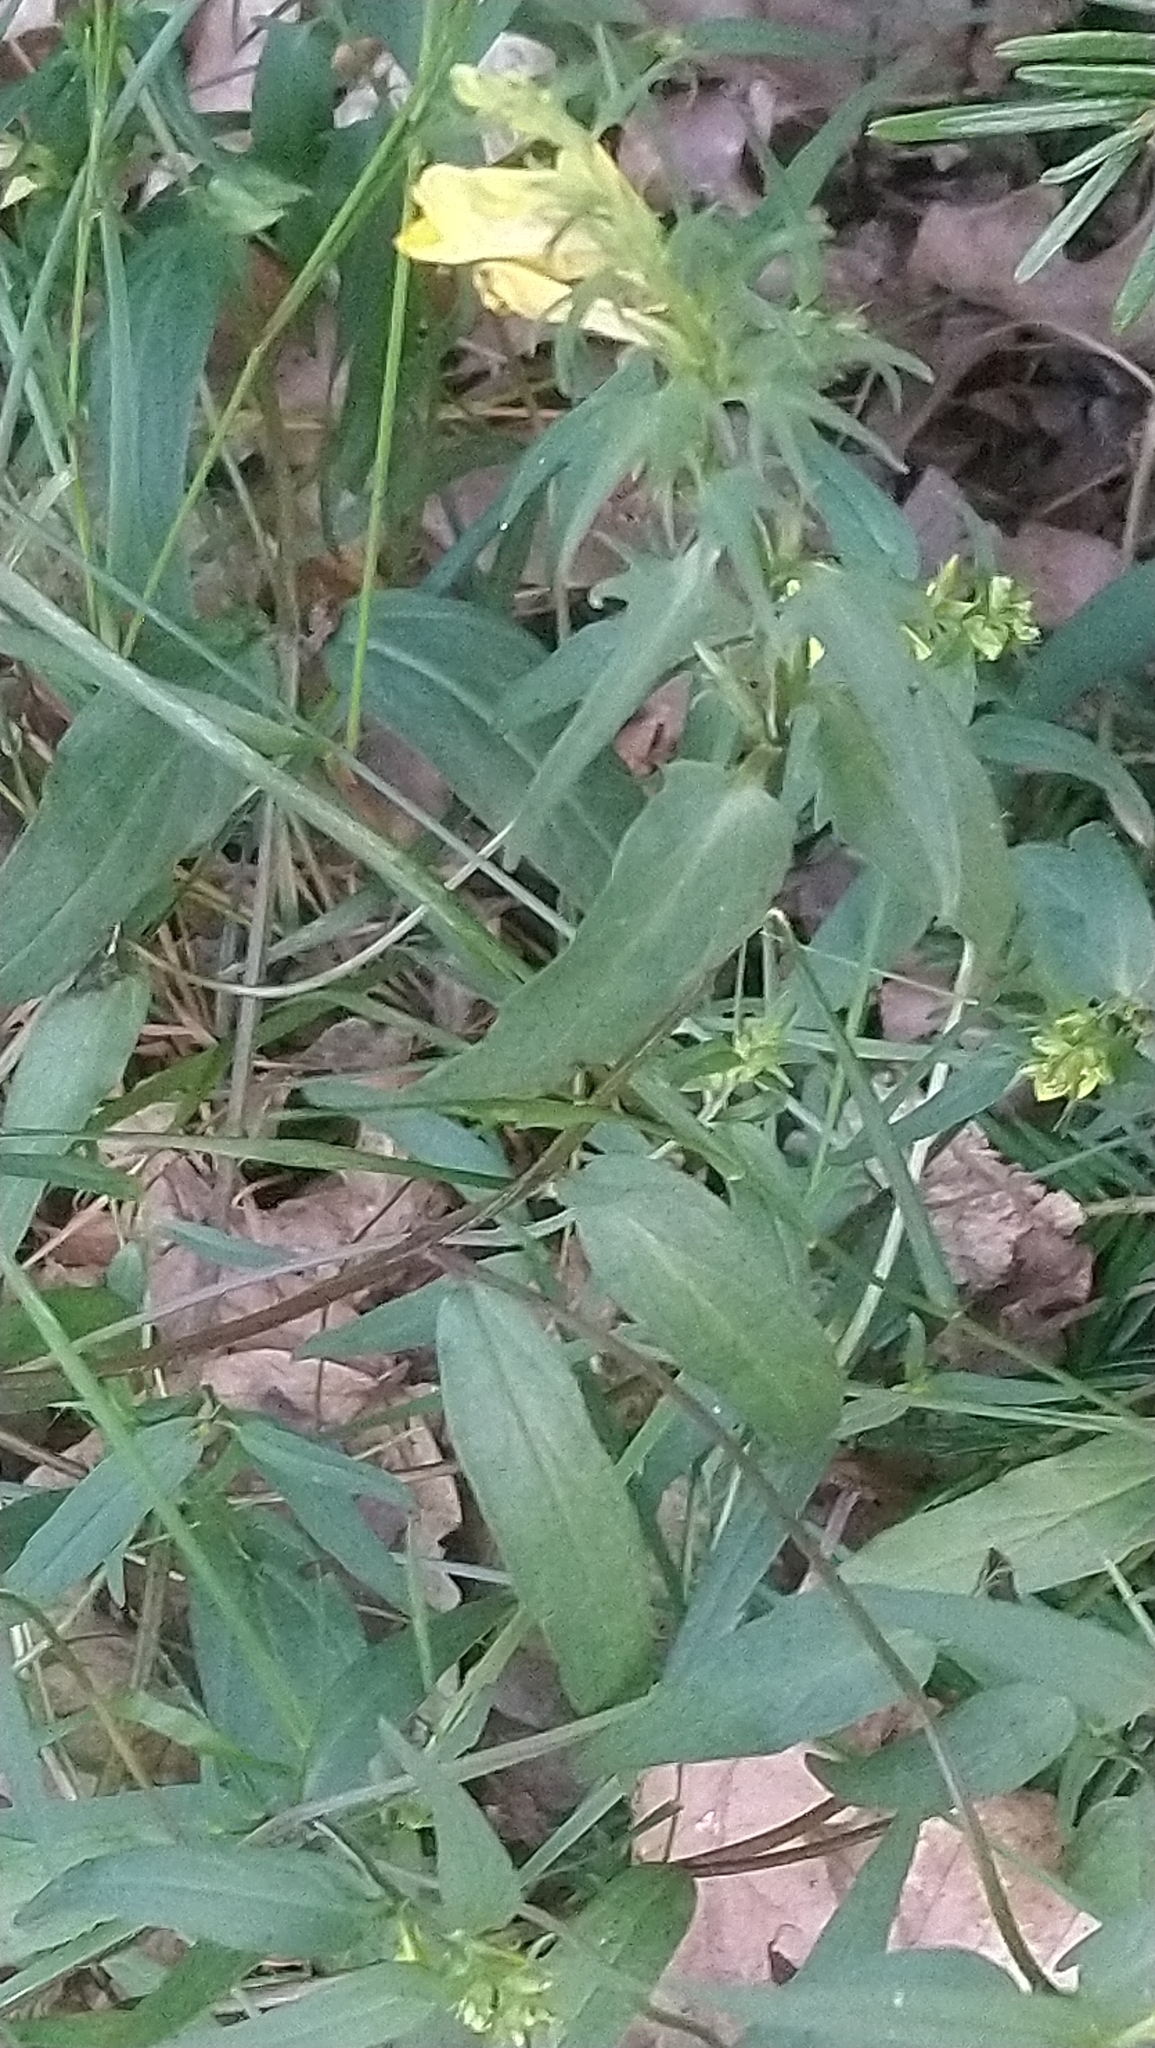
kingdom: Plantae
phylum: Tracheophyta
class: Magnoliopsida
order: Lamiales
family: Orobanchaceae
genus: Melampyrum
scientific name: Melampyrum pratense
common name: Common cow-wheat
